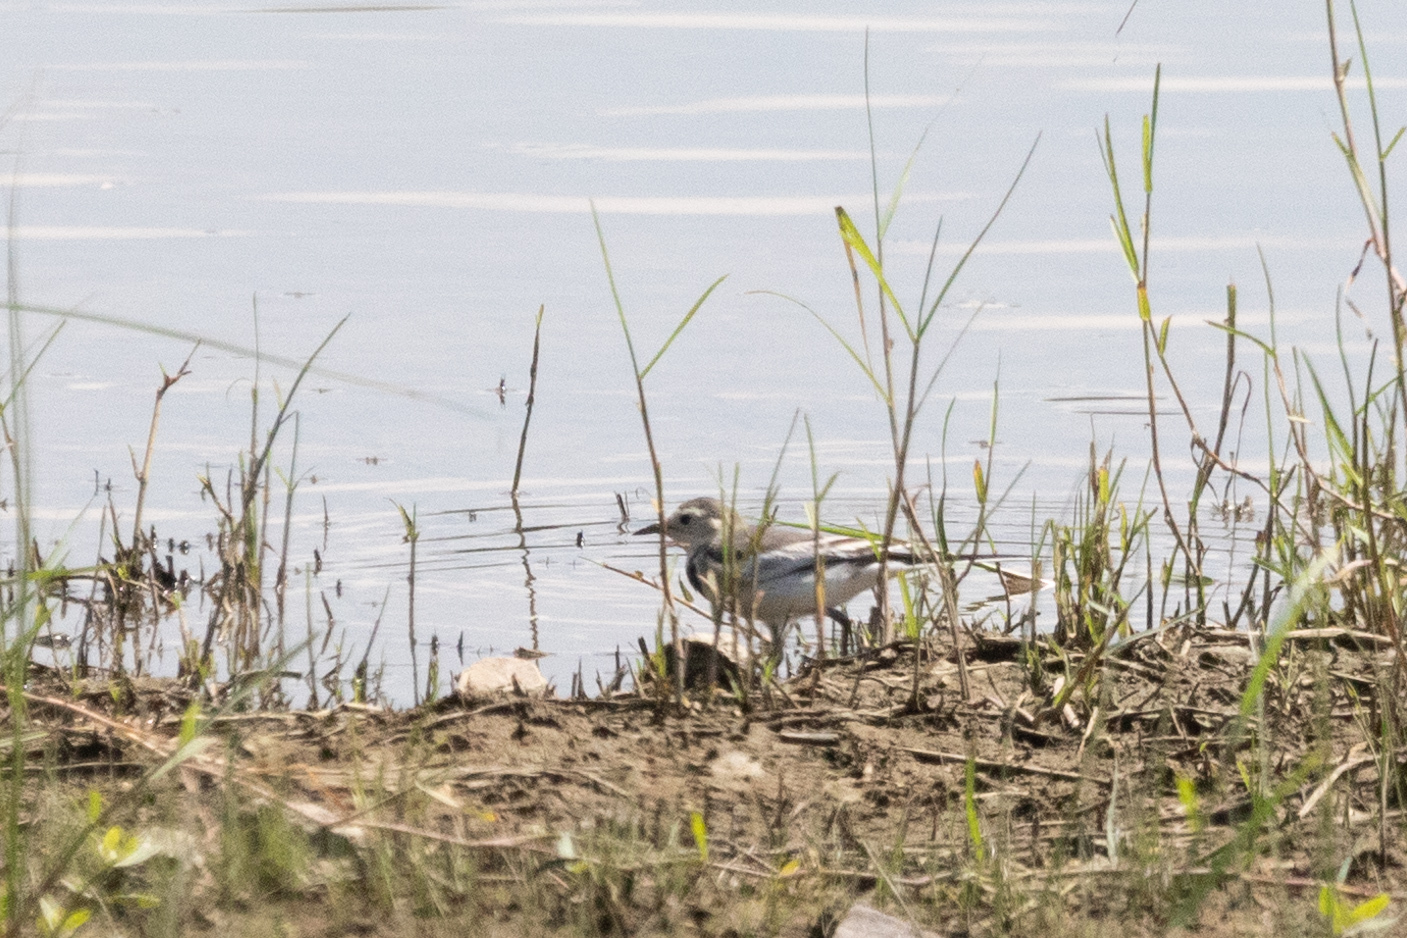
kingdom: Animalia
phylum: Chordata
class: Aves
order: Passeriformes
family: Motacillidae
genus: Motacilla
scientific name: Motacilla alba
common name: White wagtail
